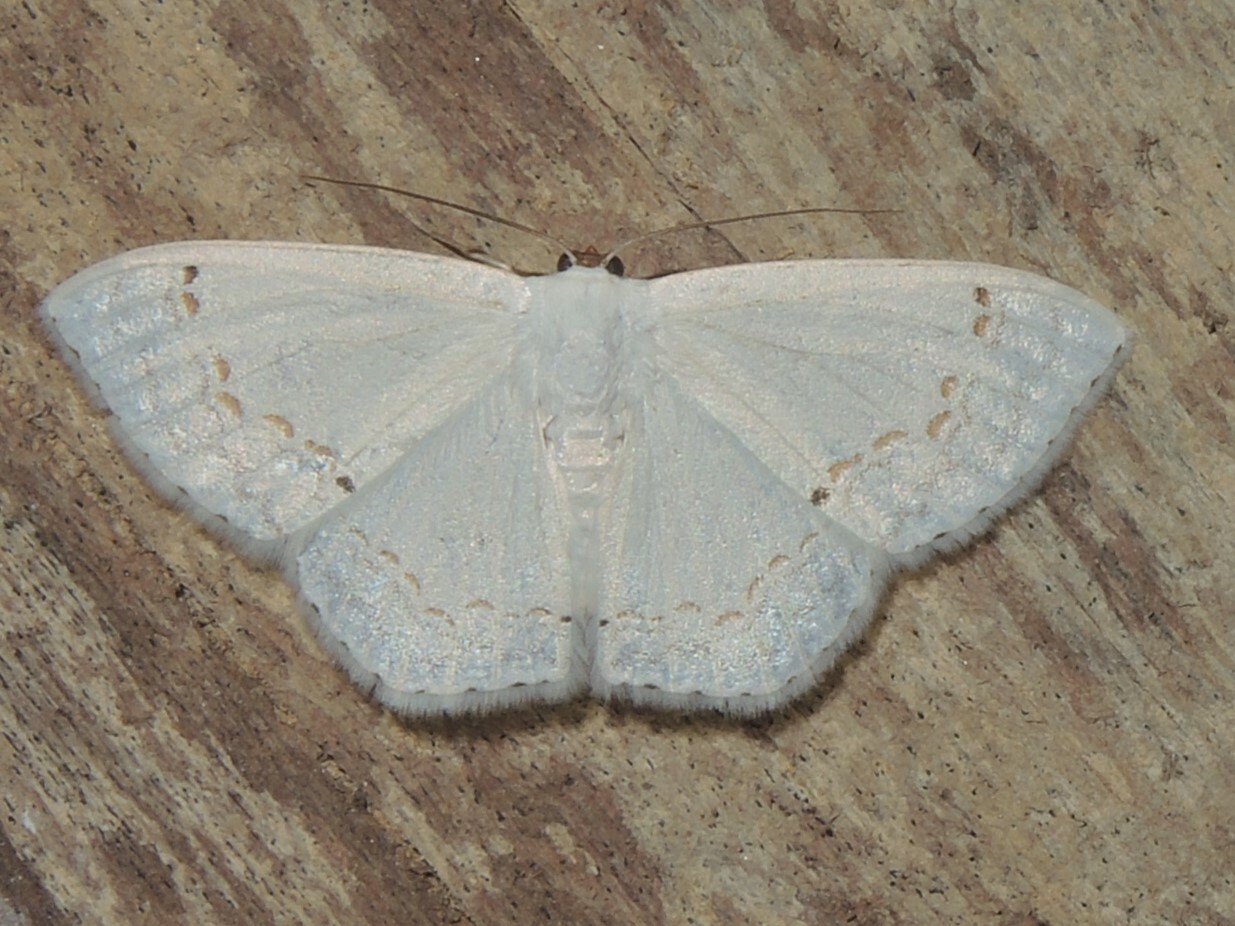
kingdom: Animalia
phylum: Arthropoda
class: Insecta
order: Lepidoptera
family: Drepanidae
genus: Teldenia
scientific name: Teldenia vestigiata
